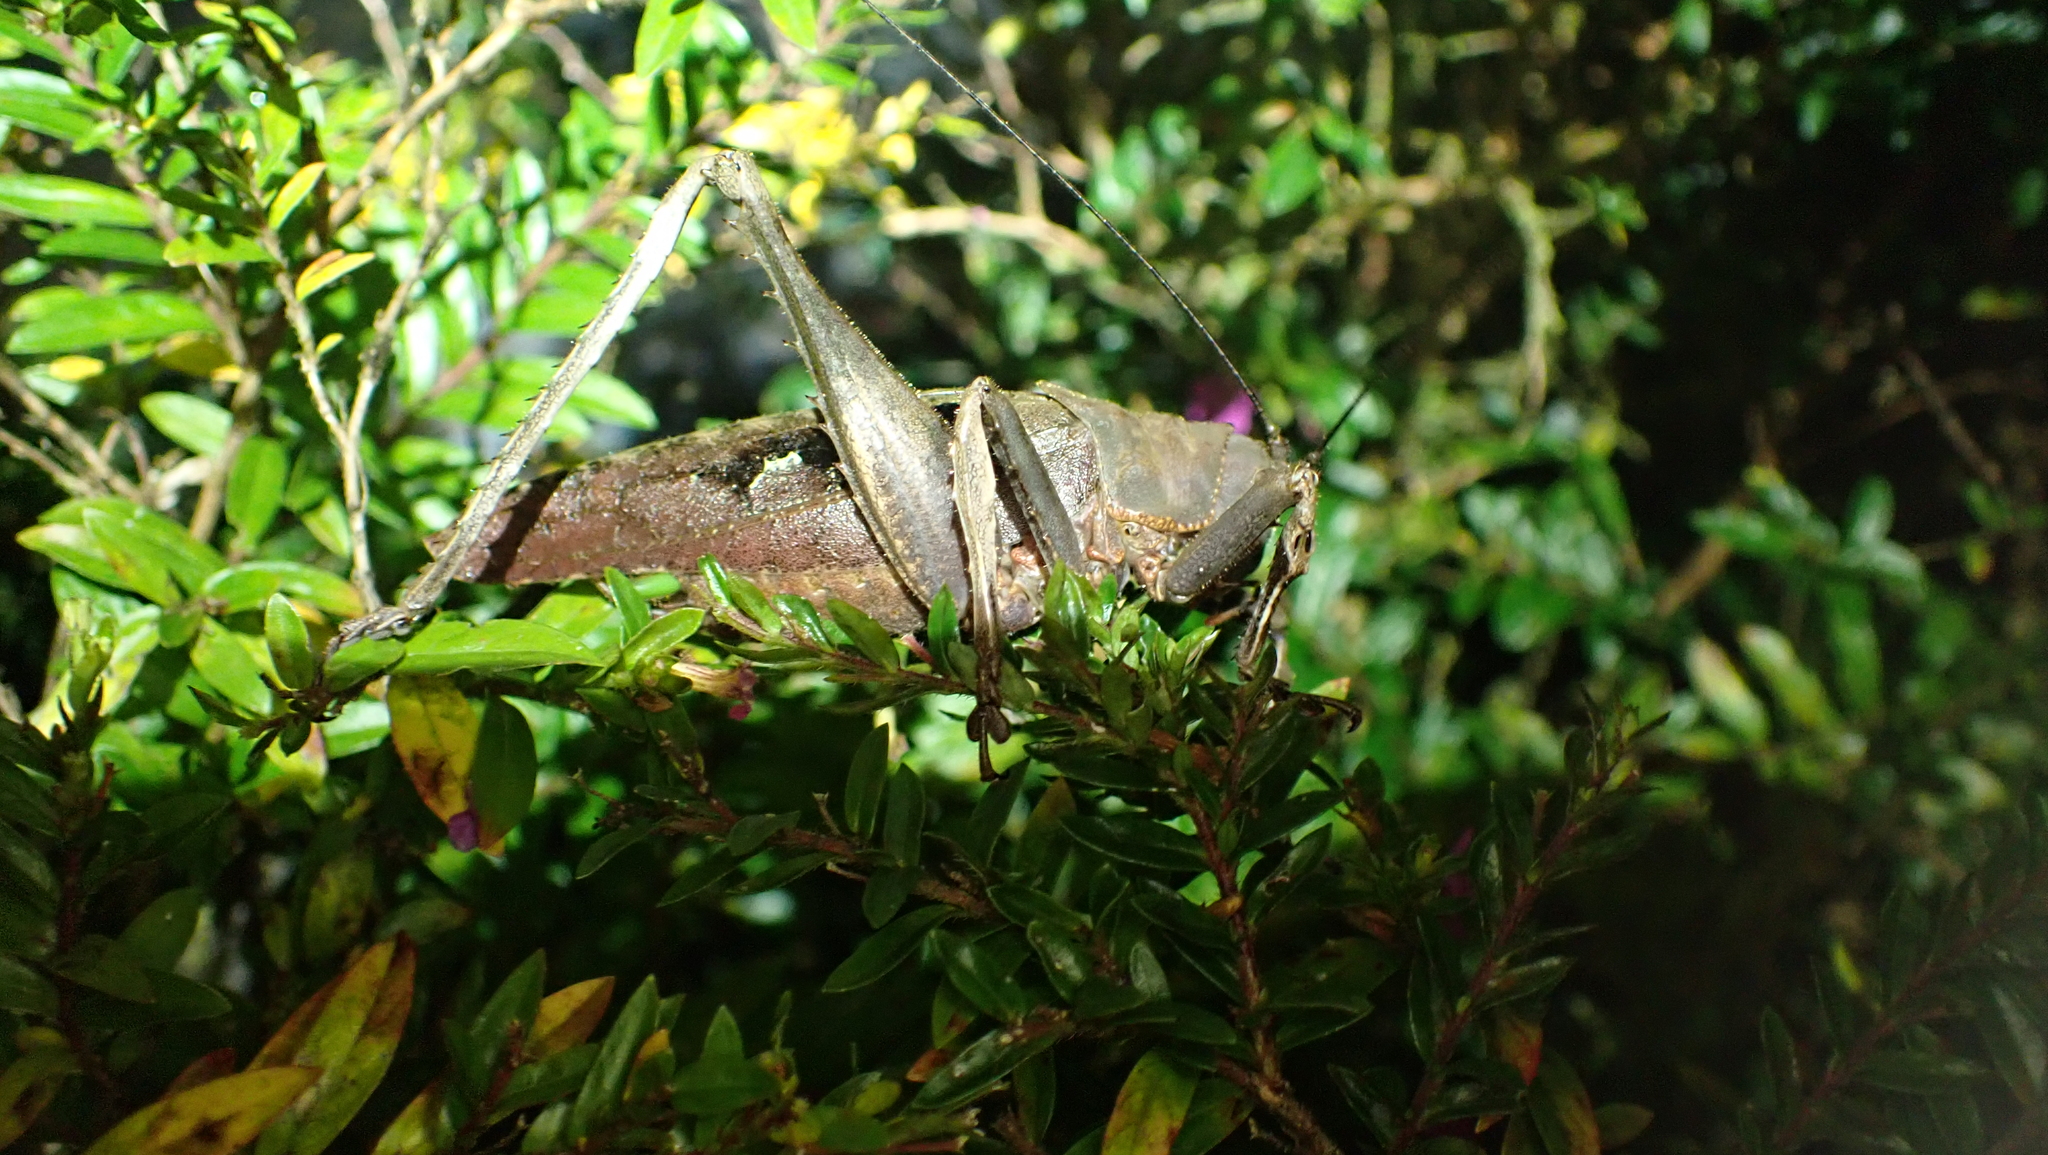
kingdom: Animalia
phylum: Arthropoda
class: Insecta
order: Orthoptera
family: Tettigoniidae
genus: Balboana
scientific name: Balboana tibialis
